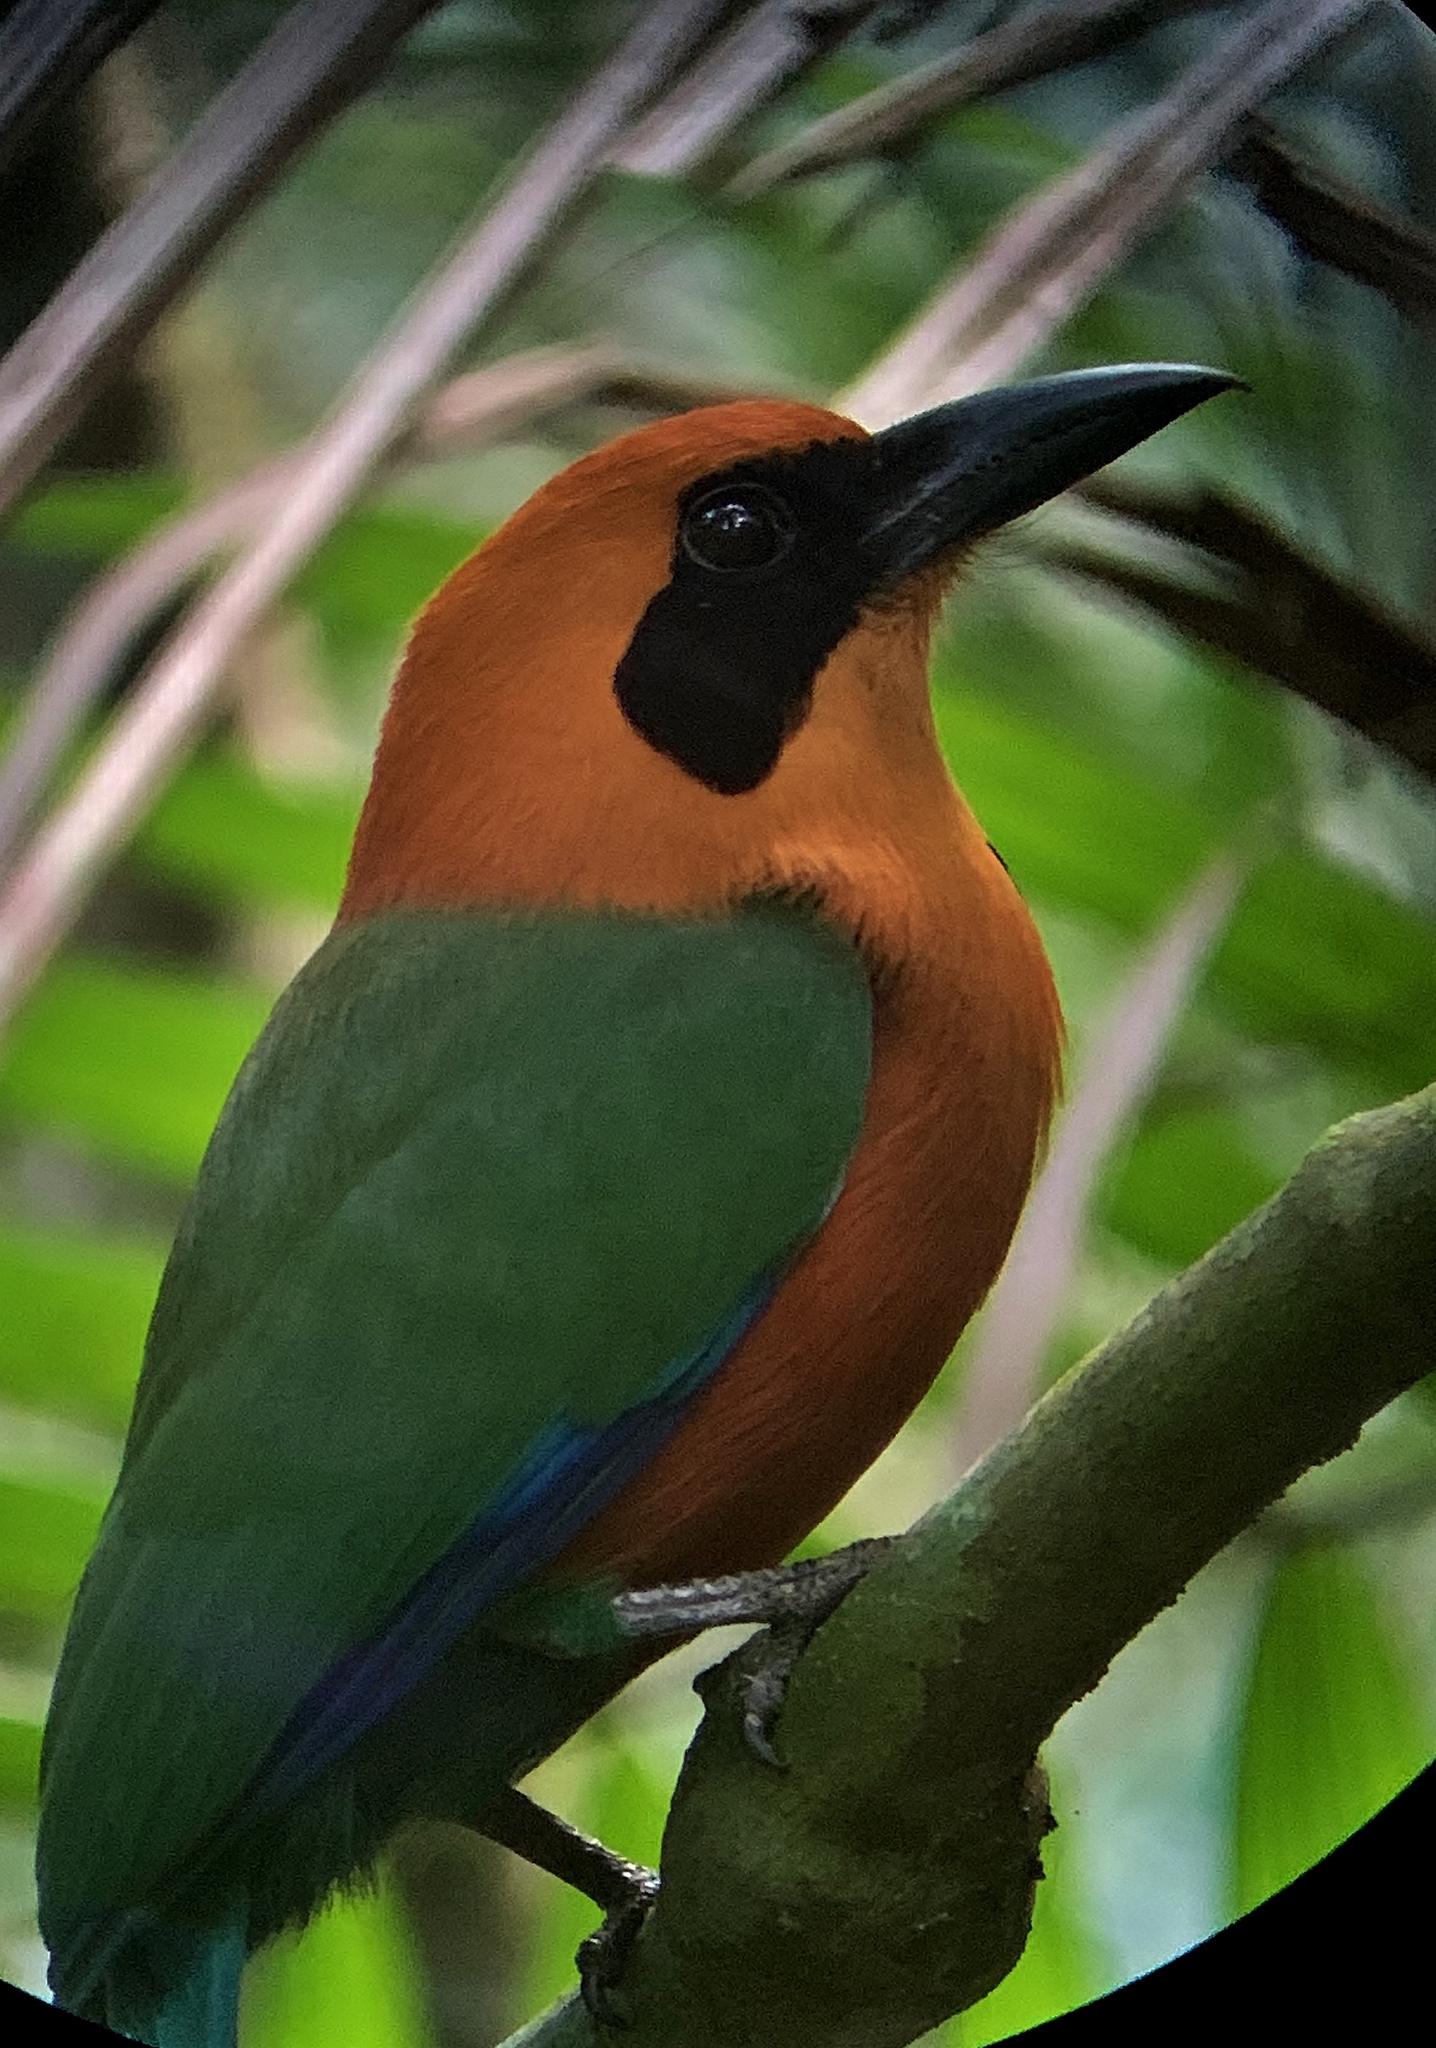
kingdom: Animalia
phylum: Chordata
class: Aves
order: Coraciiformes
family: Momotidae
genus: Baryphthengus
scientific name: Baryphthengus martii
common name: Rufous motmot
